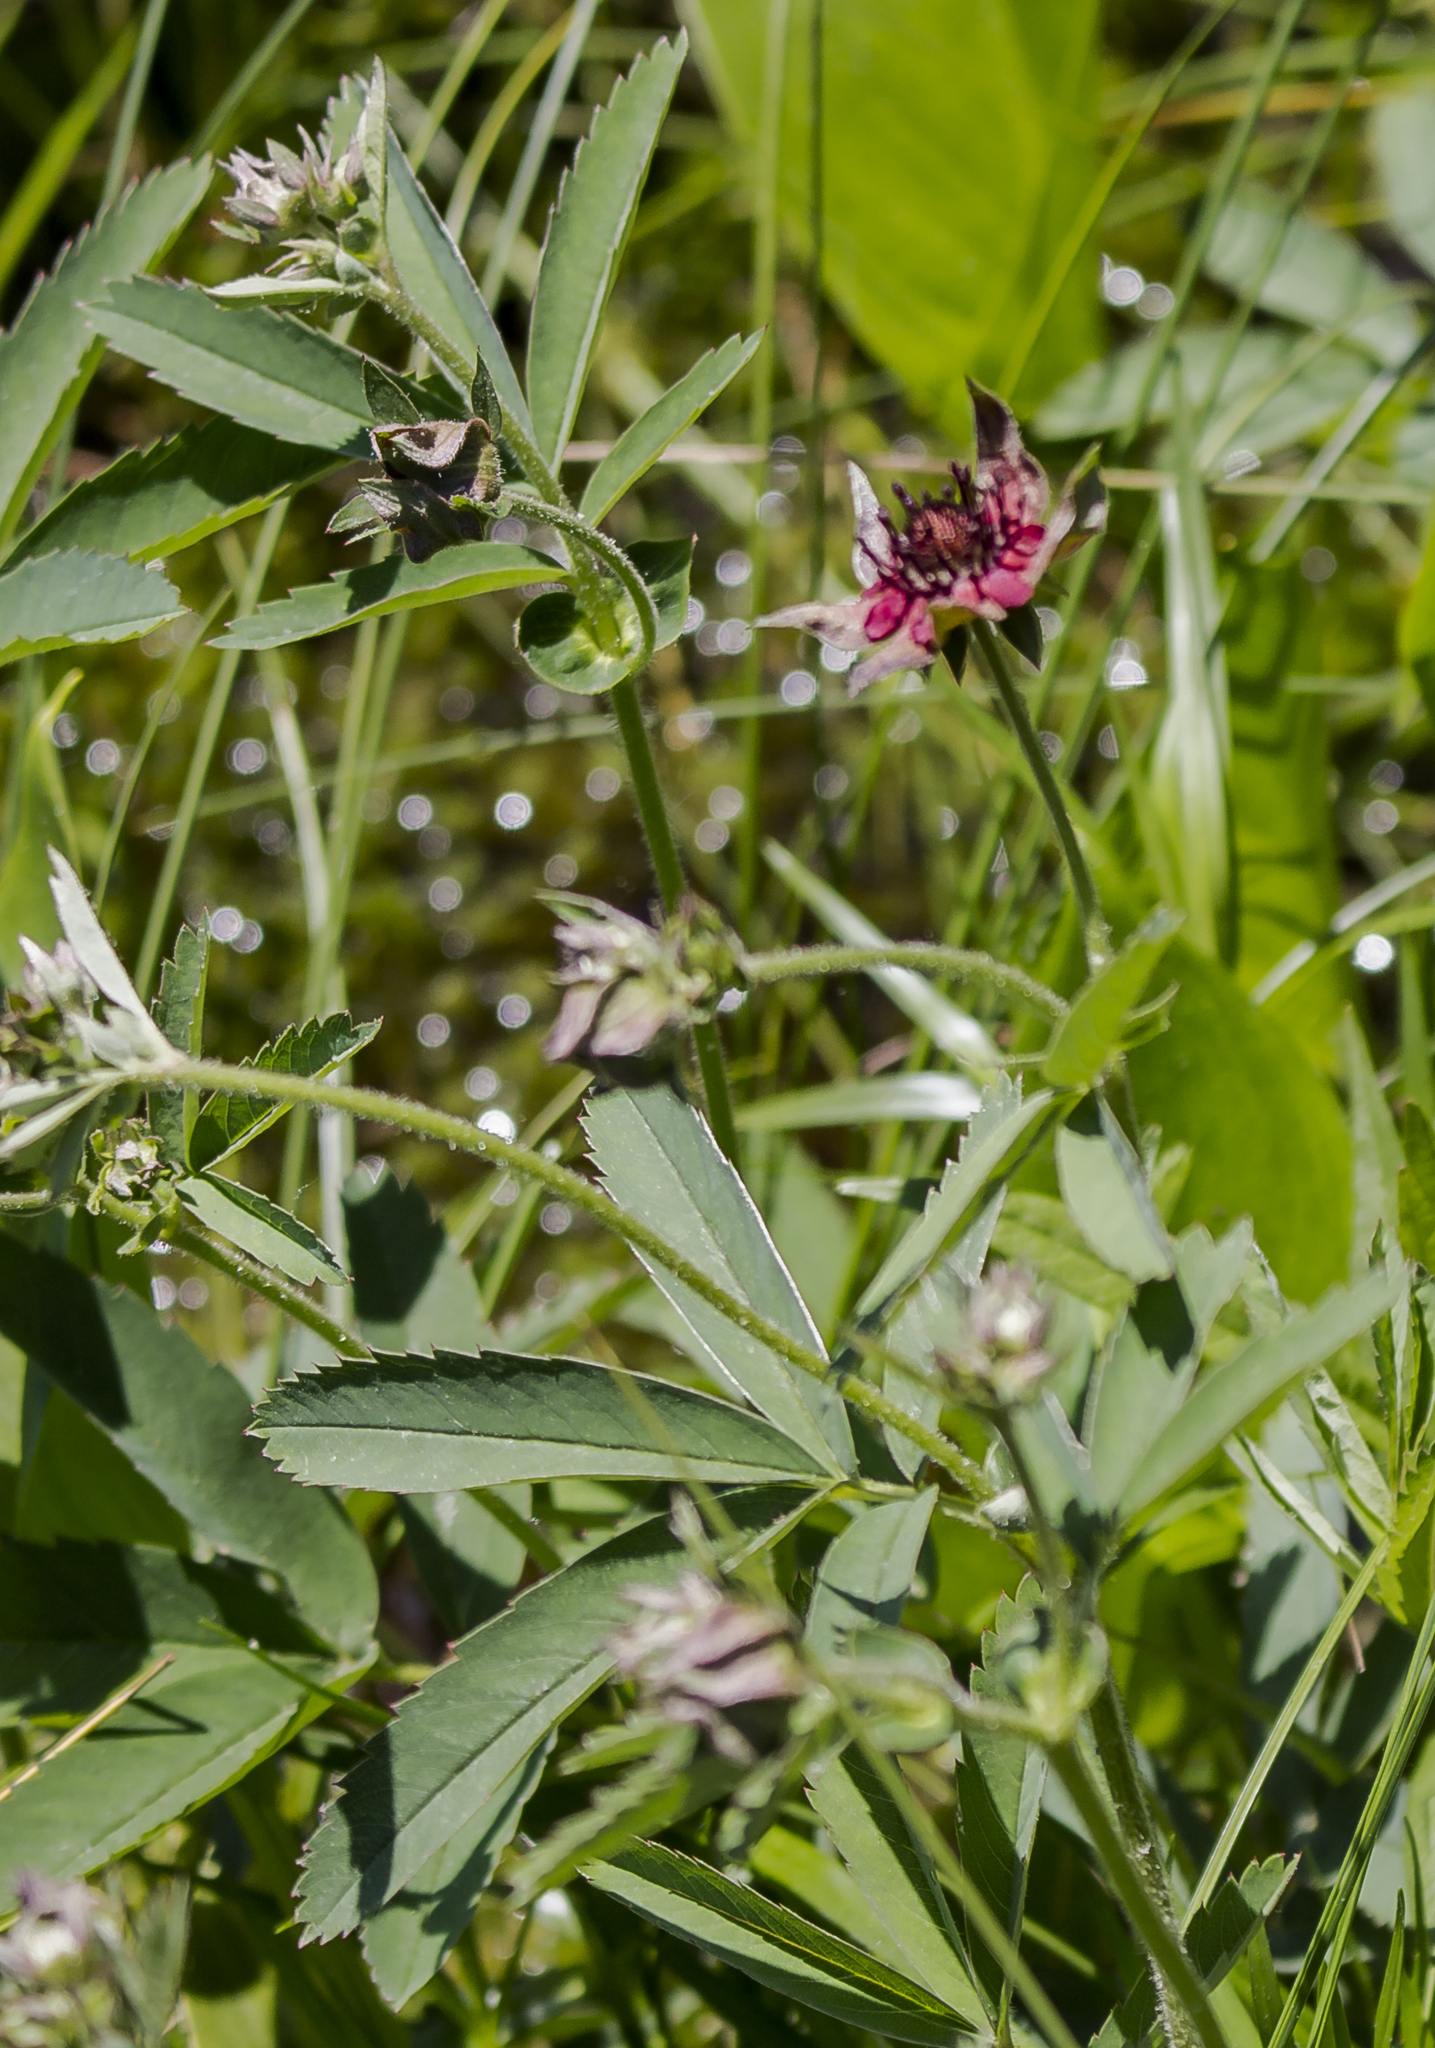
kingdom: Plantae
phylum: Tracheophyta
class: Magnoliopsida
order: Rosales
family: Rosaceae
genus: Comarum
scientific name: Comarum palustre
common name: Marsh cinquefoil
